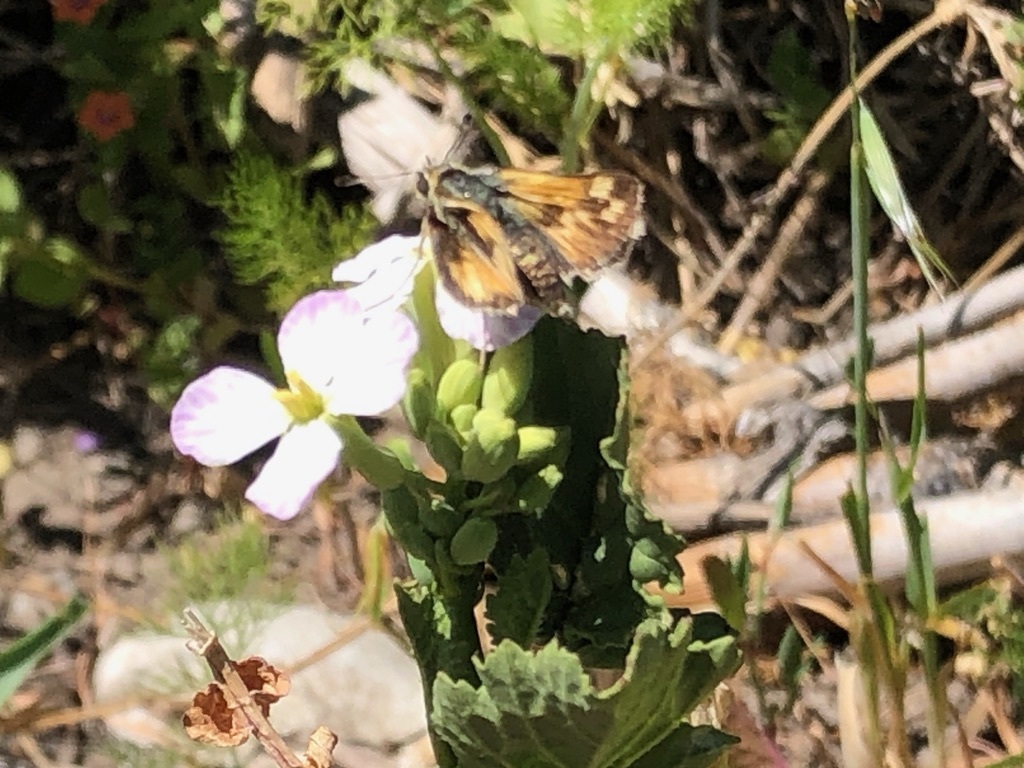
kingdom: Animalia
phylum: Arthropoda
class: Insecta
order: Lepidoptera
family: Hesperiidae
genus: Polites
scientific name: Polites sabuleti
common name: Sandhill skipper
